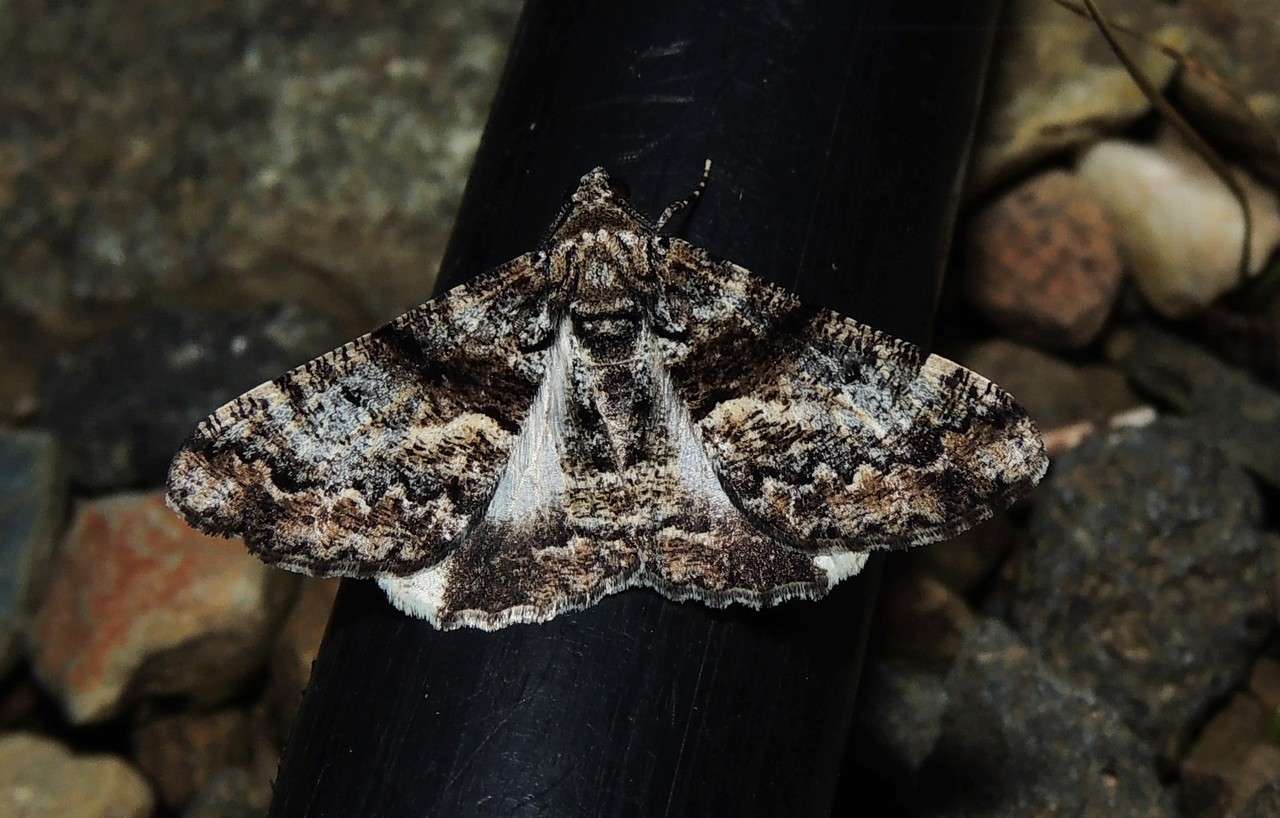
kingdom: Animalia
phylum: Arthropoda
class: Insecta
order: Lepidoptera
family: Geometridae
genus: Gastrinodes
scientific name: Gastrinodes argoplaca
